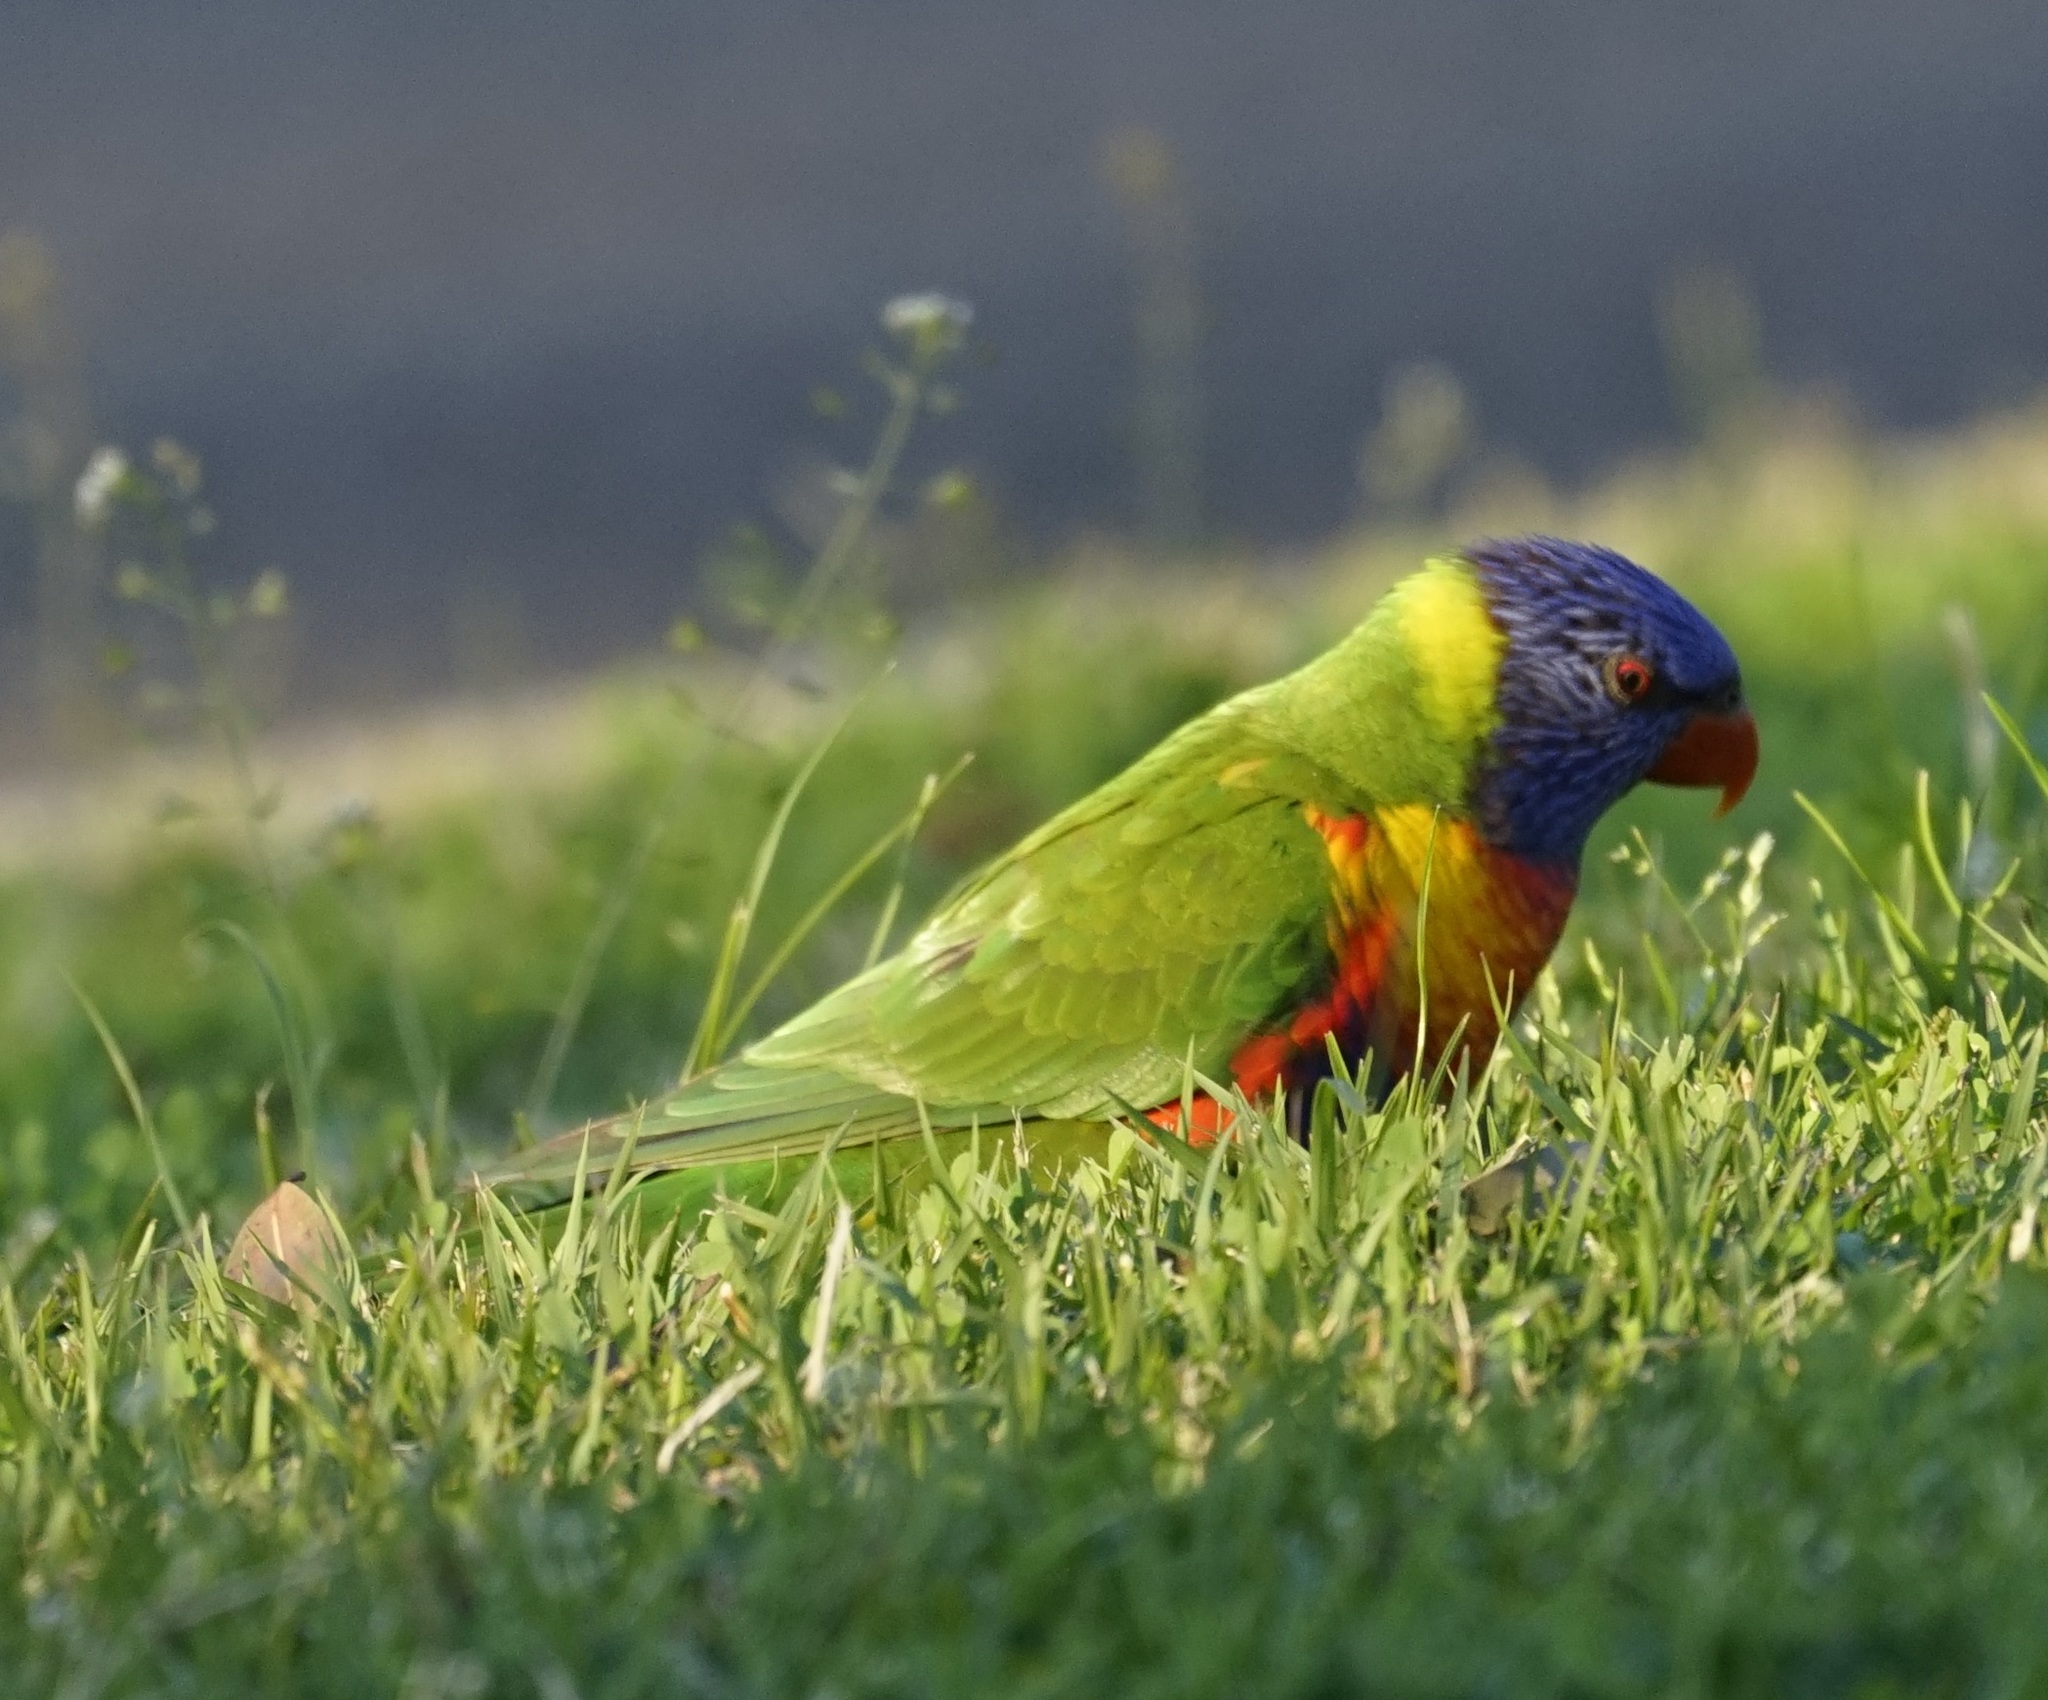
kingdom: Animalia
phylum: Chordata
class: Aves
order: Psittaciformes
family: Psittacidae
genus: Trichoglossus
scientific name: Trichoglossus haematodus
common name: Coconut lorikeet
